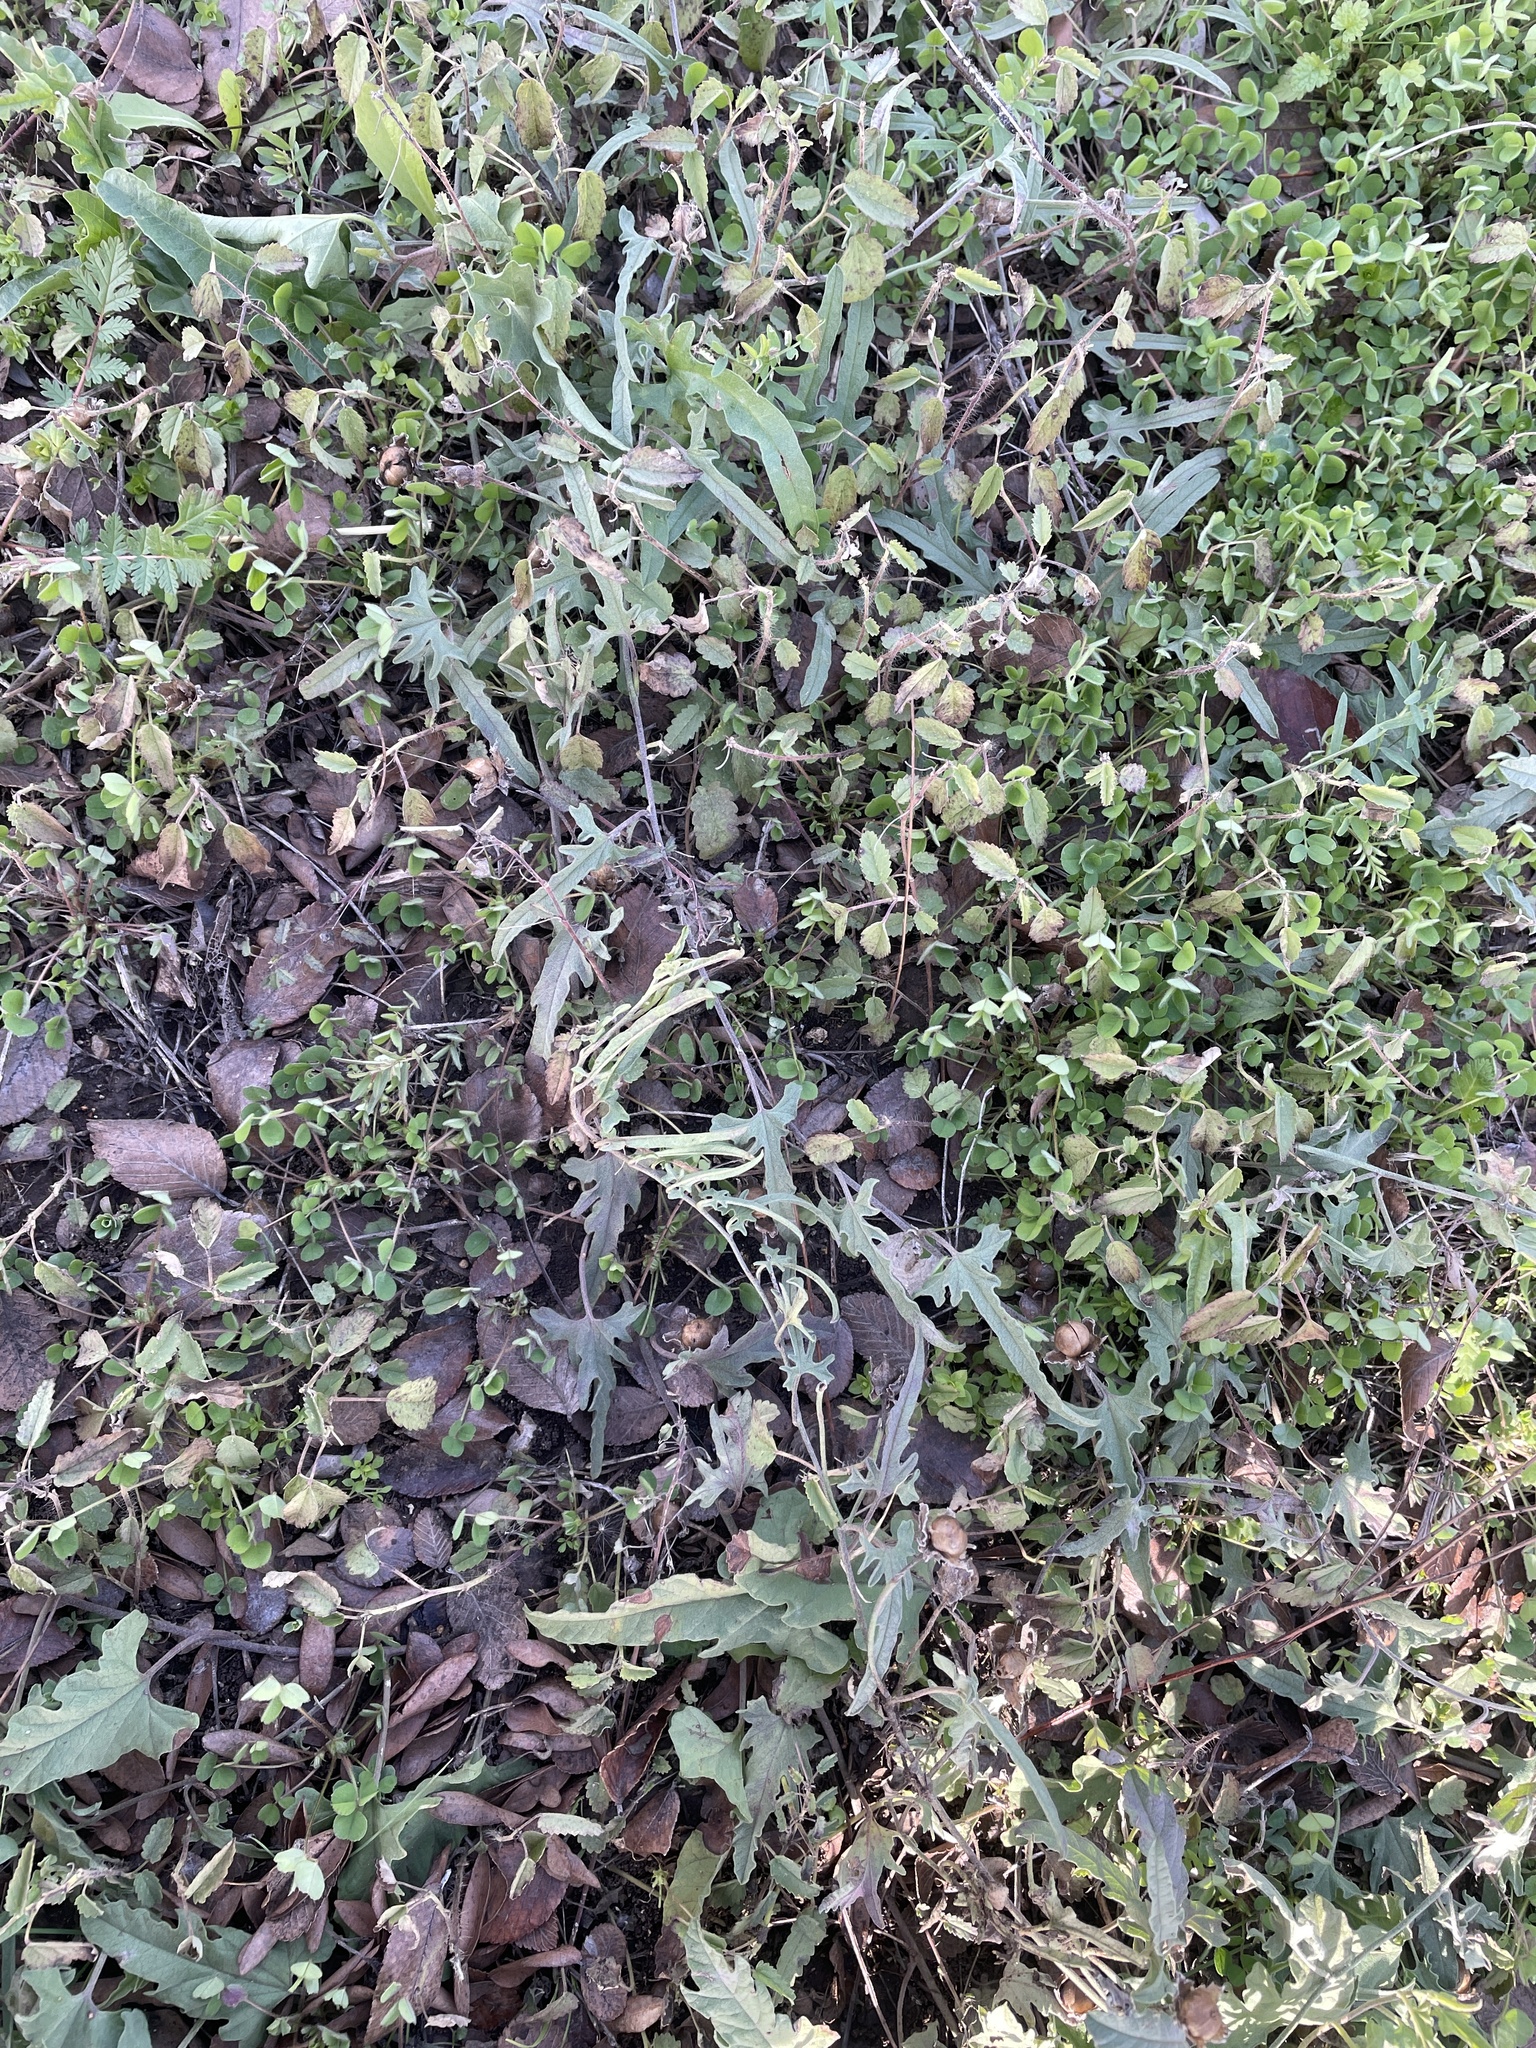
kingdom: Plantae
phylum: Tracheophyta
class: Magnoliopsida
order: Solanales
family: Convolvulaceae
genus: Convolvulus
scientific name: Convolvulus equitans
